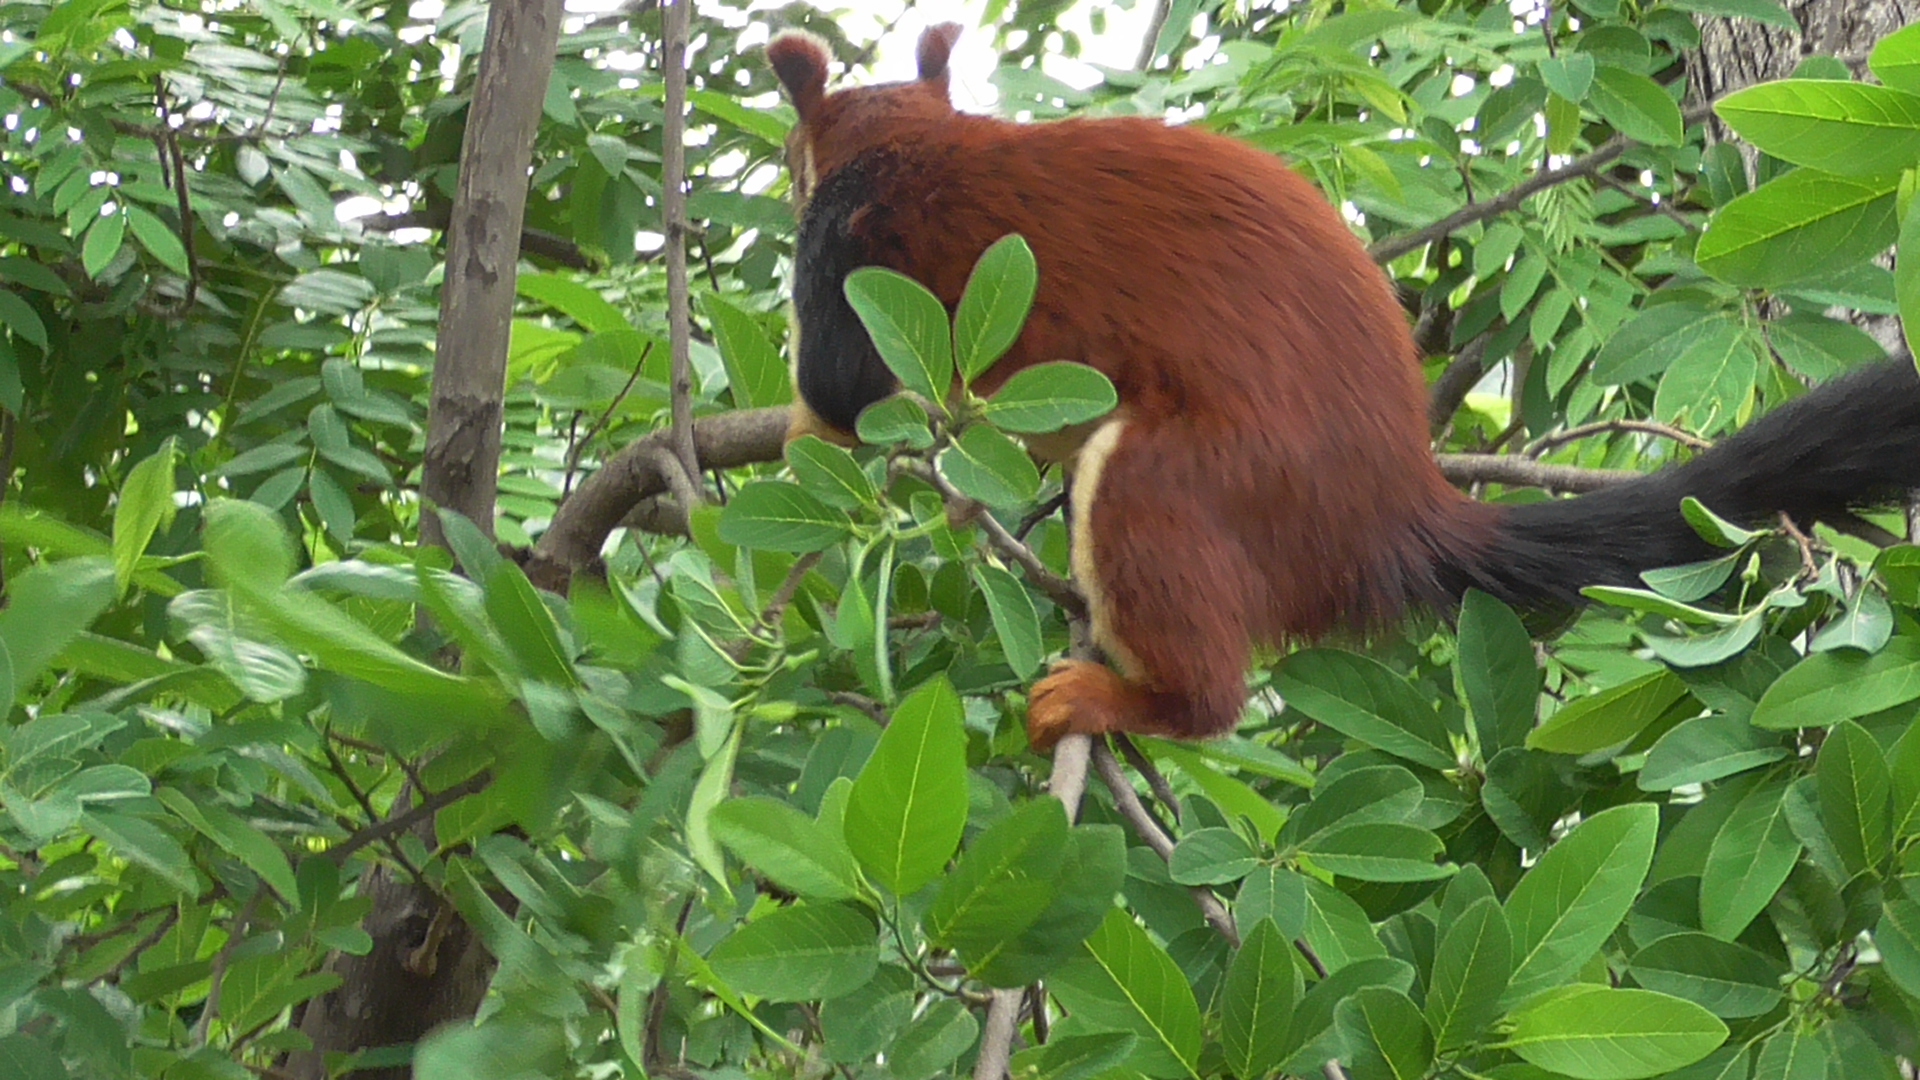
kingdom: Animalia
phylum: Chordata
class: Mammalia
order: Rodentia
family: Sciuridae
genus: Ratufa
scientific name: Ratufa indica
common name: Indian giant squirrel
